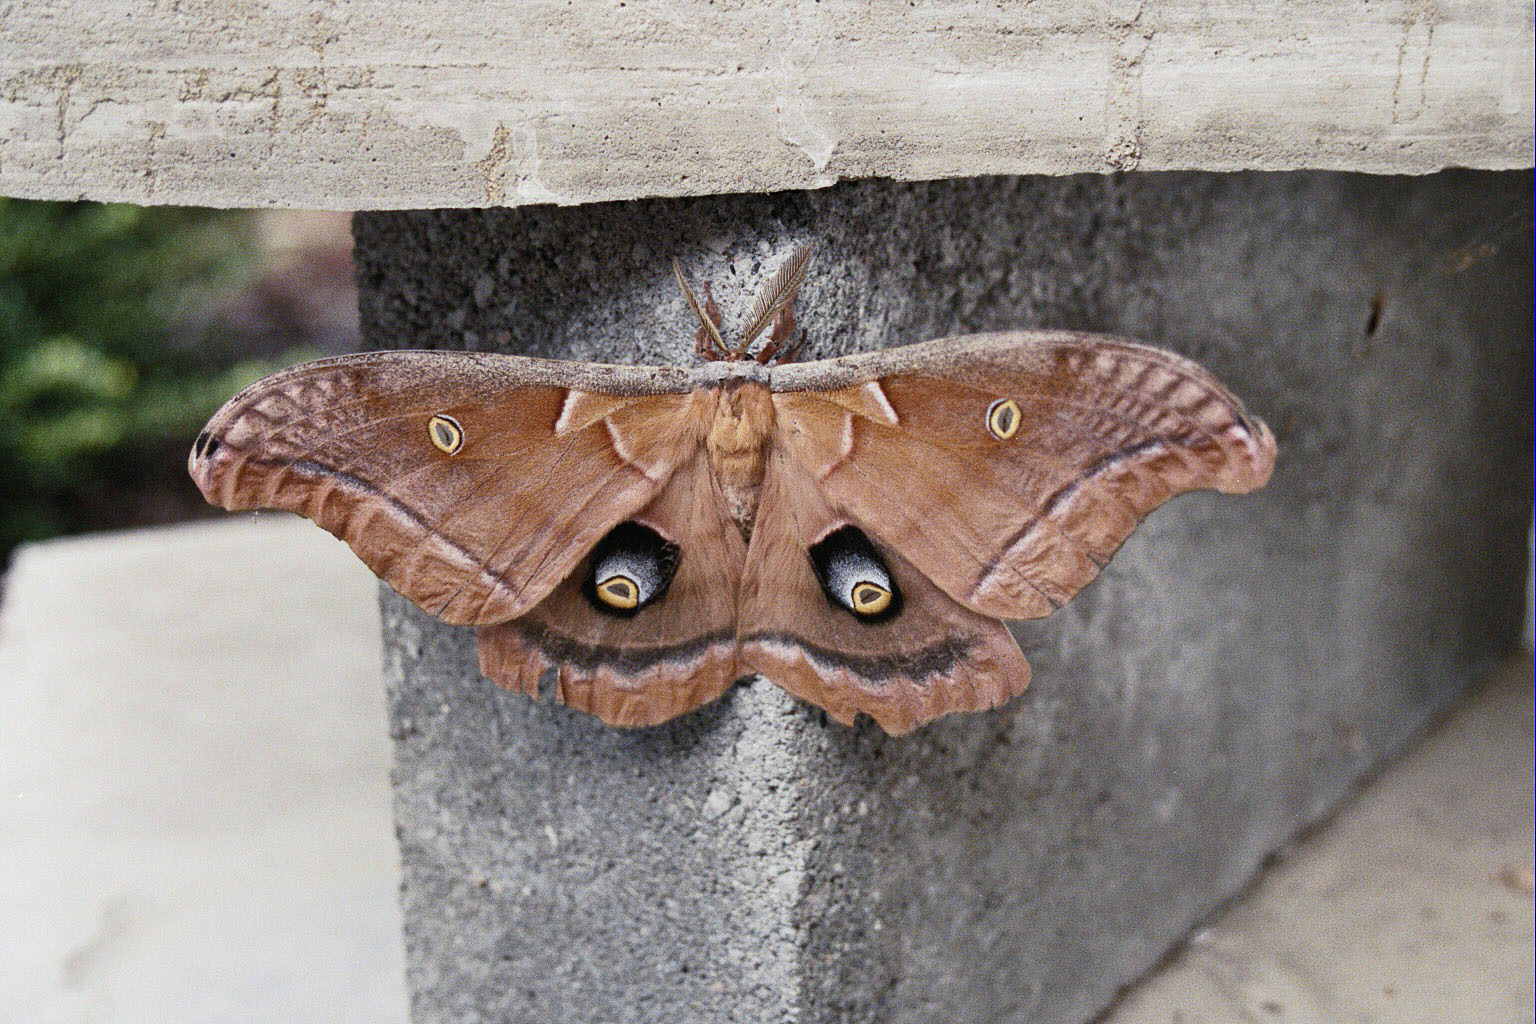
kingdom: Animalia
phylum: Arthropoda
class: Insecta
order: Lepidoptera
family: Saturniidae
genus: Antheraea
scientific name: Antheraea polyphemus
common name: Polyphemus moth
